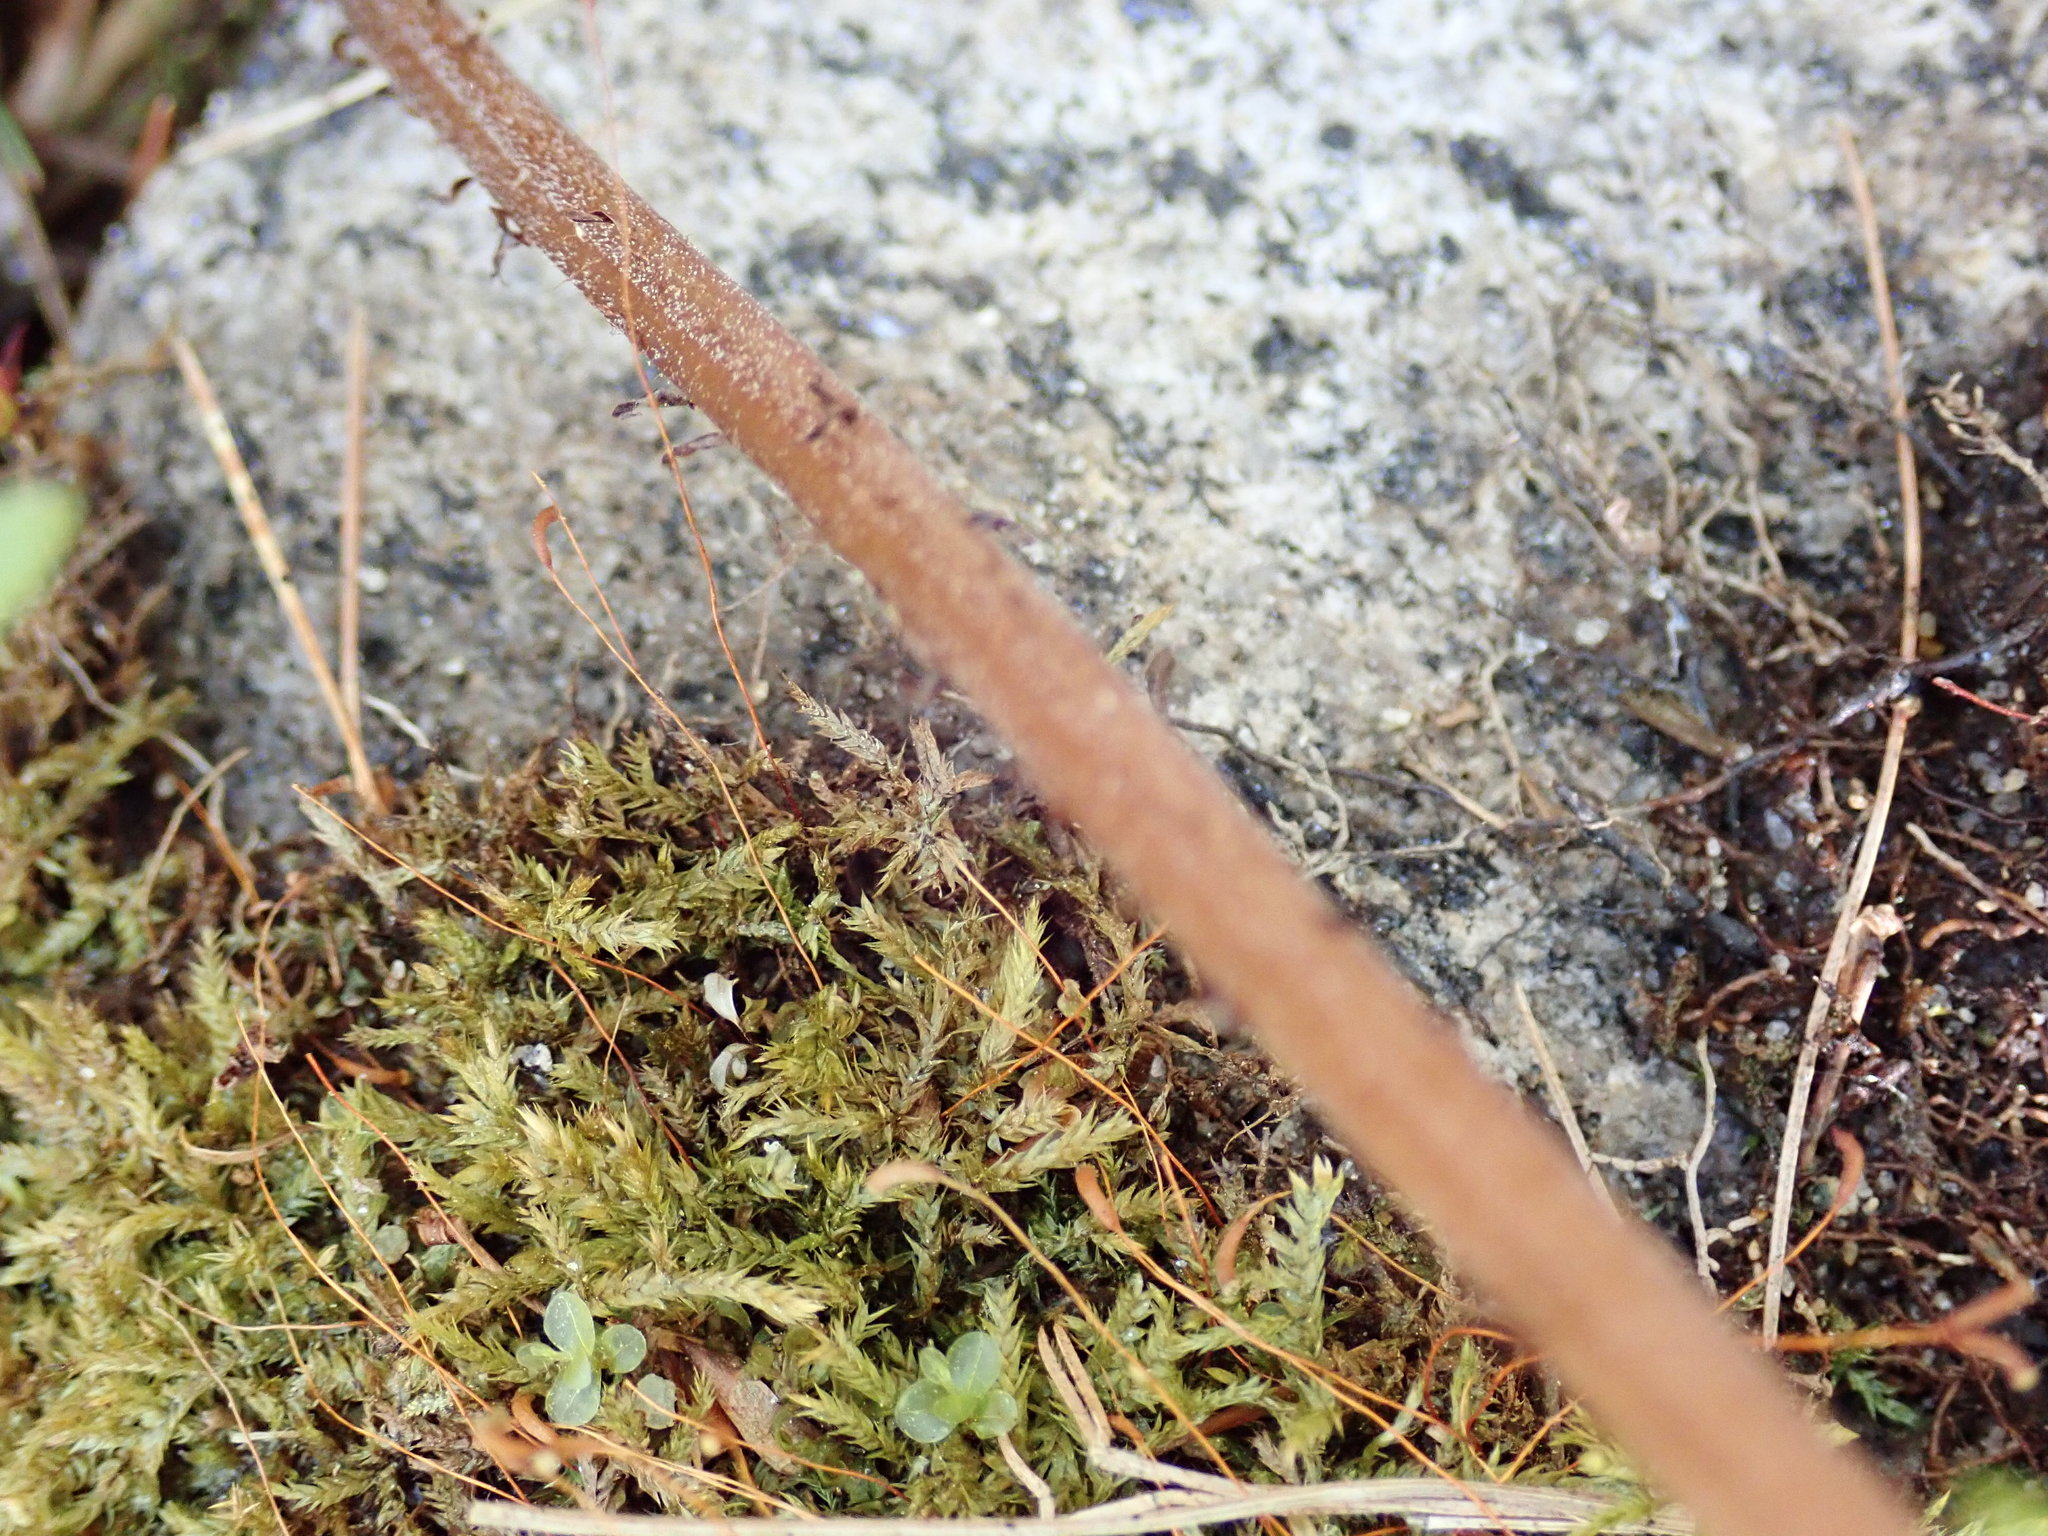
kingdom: Plantae
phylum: Tracheophyta
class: Polypodiopsida
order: Polypodiales
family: Athyriaceae
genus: Athyrium
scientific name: Athyrium angustum
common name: Northern lady fern
